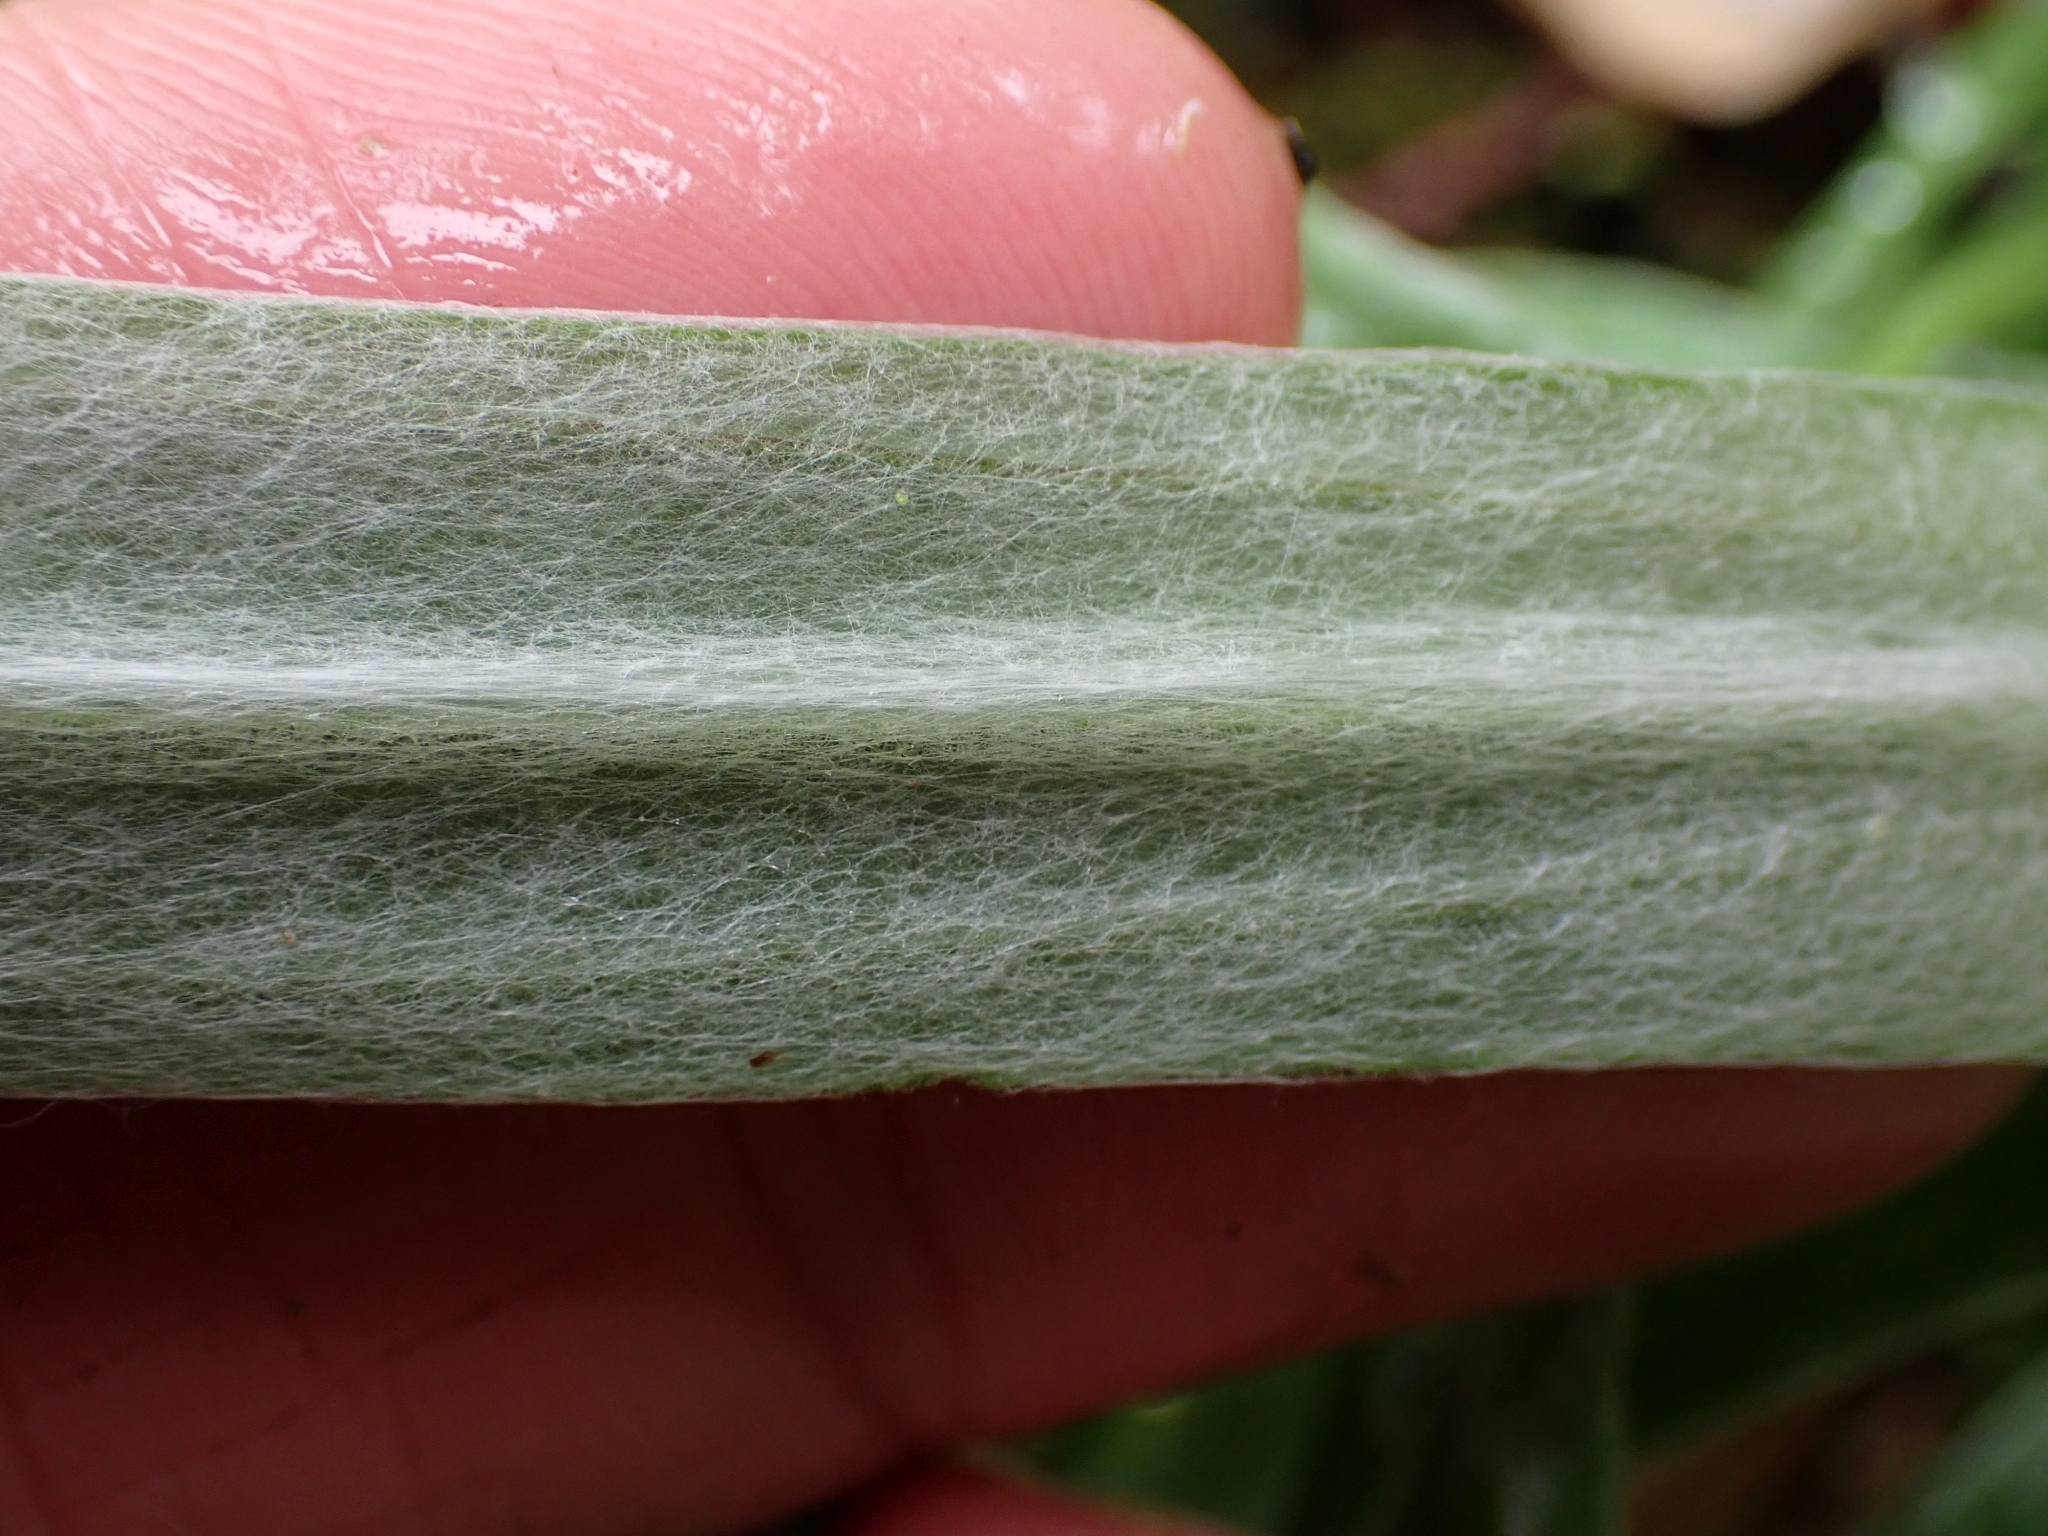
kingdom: Plantae
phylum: Tracheophyta
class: Magnoliopsida
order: Asterales
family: Asteraceae
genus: Anaphalis
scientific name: Anaphalis margaritacea
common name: Pearly everlasting
